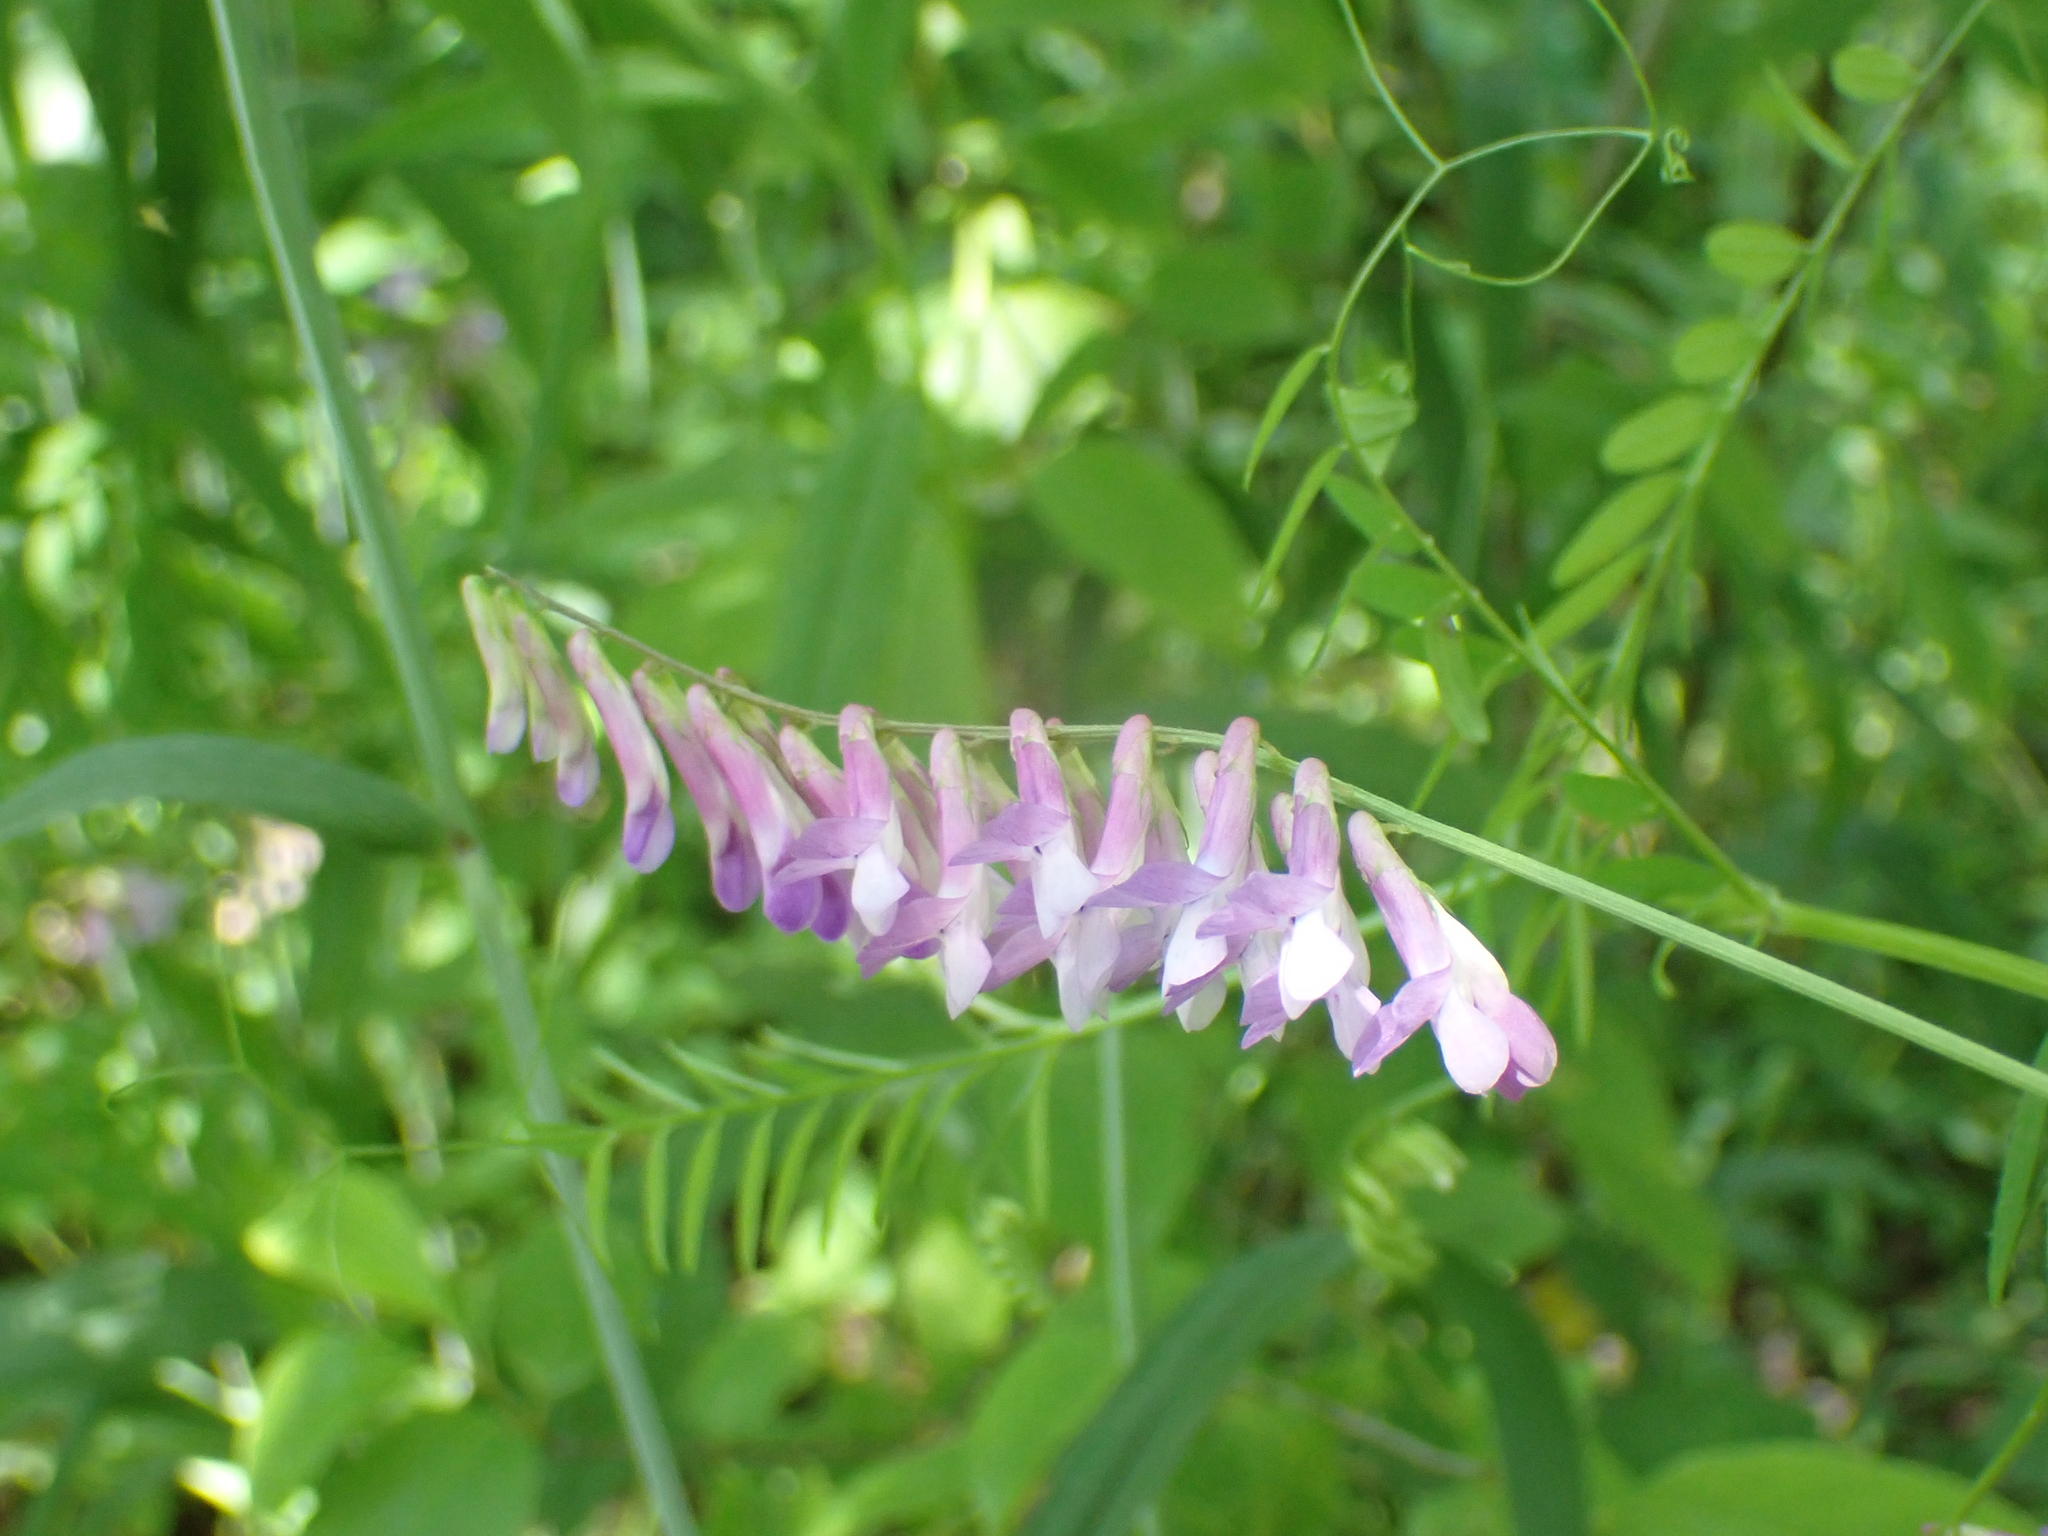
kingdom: Plantae
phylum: Tracheophyta
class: Magnoliopsida
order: Fabales
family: Fabaceae
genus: Vicia
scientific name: Vicia villosa
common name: Fodder vetch
